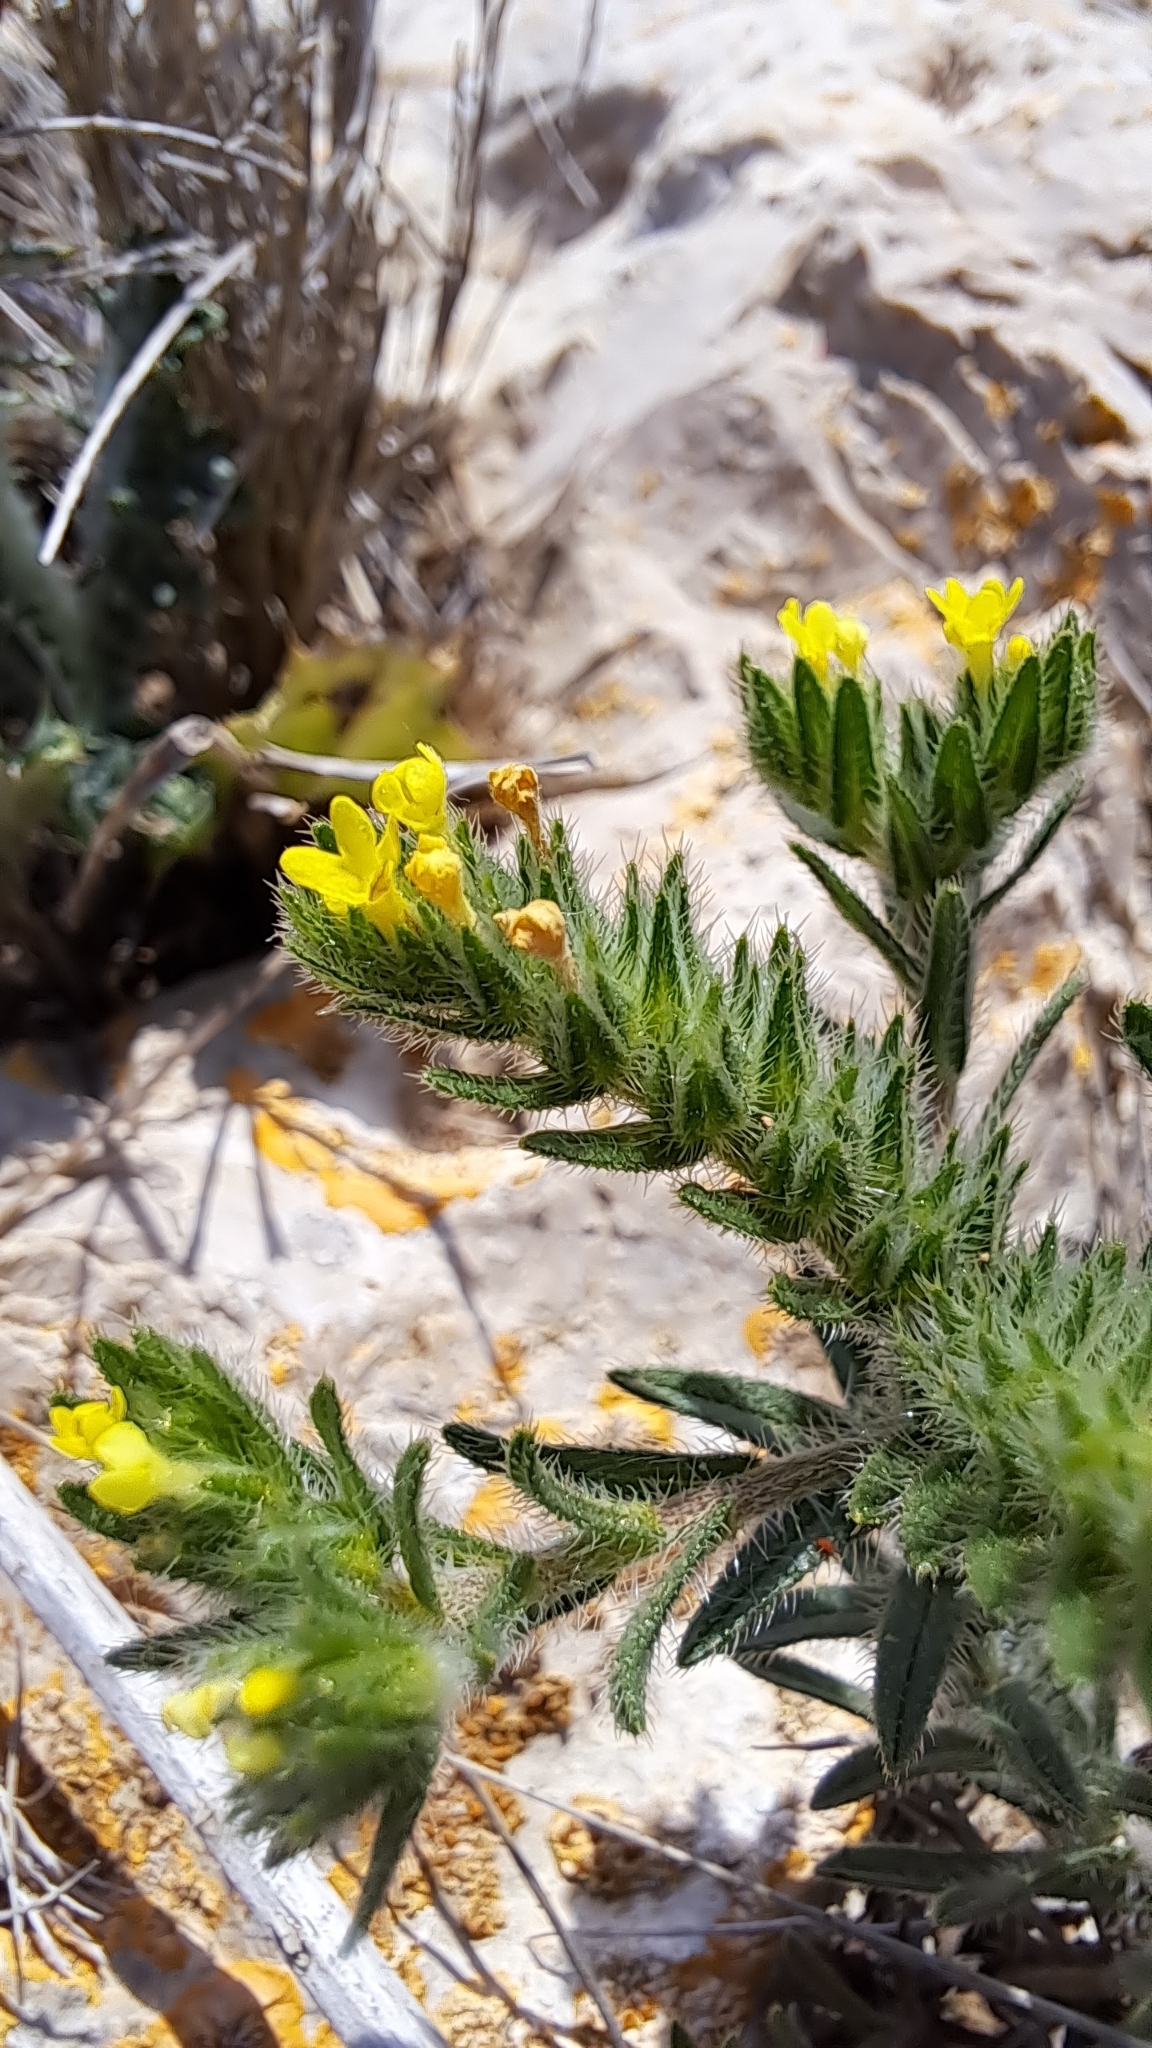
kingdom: Plantae
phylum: Tracheophyta
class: Magnoliopsida
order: Boraginales
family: Boraginaceae
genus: Neatostema
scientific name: Neatostema apulum
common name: Hairy sheepweed
